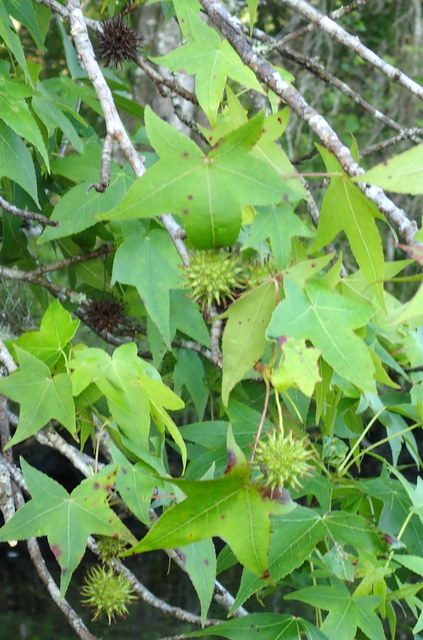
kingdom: Plantae
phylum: Tracheophyta
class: Magnoliopsida
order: Saxifragales
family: Altingiaceae
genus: Liquidambar
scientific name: Liquidambar styraciflua
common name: Sweet gum
